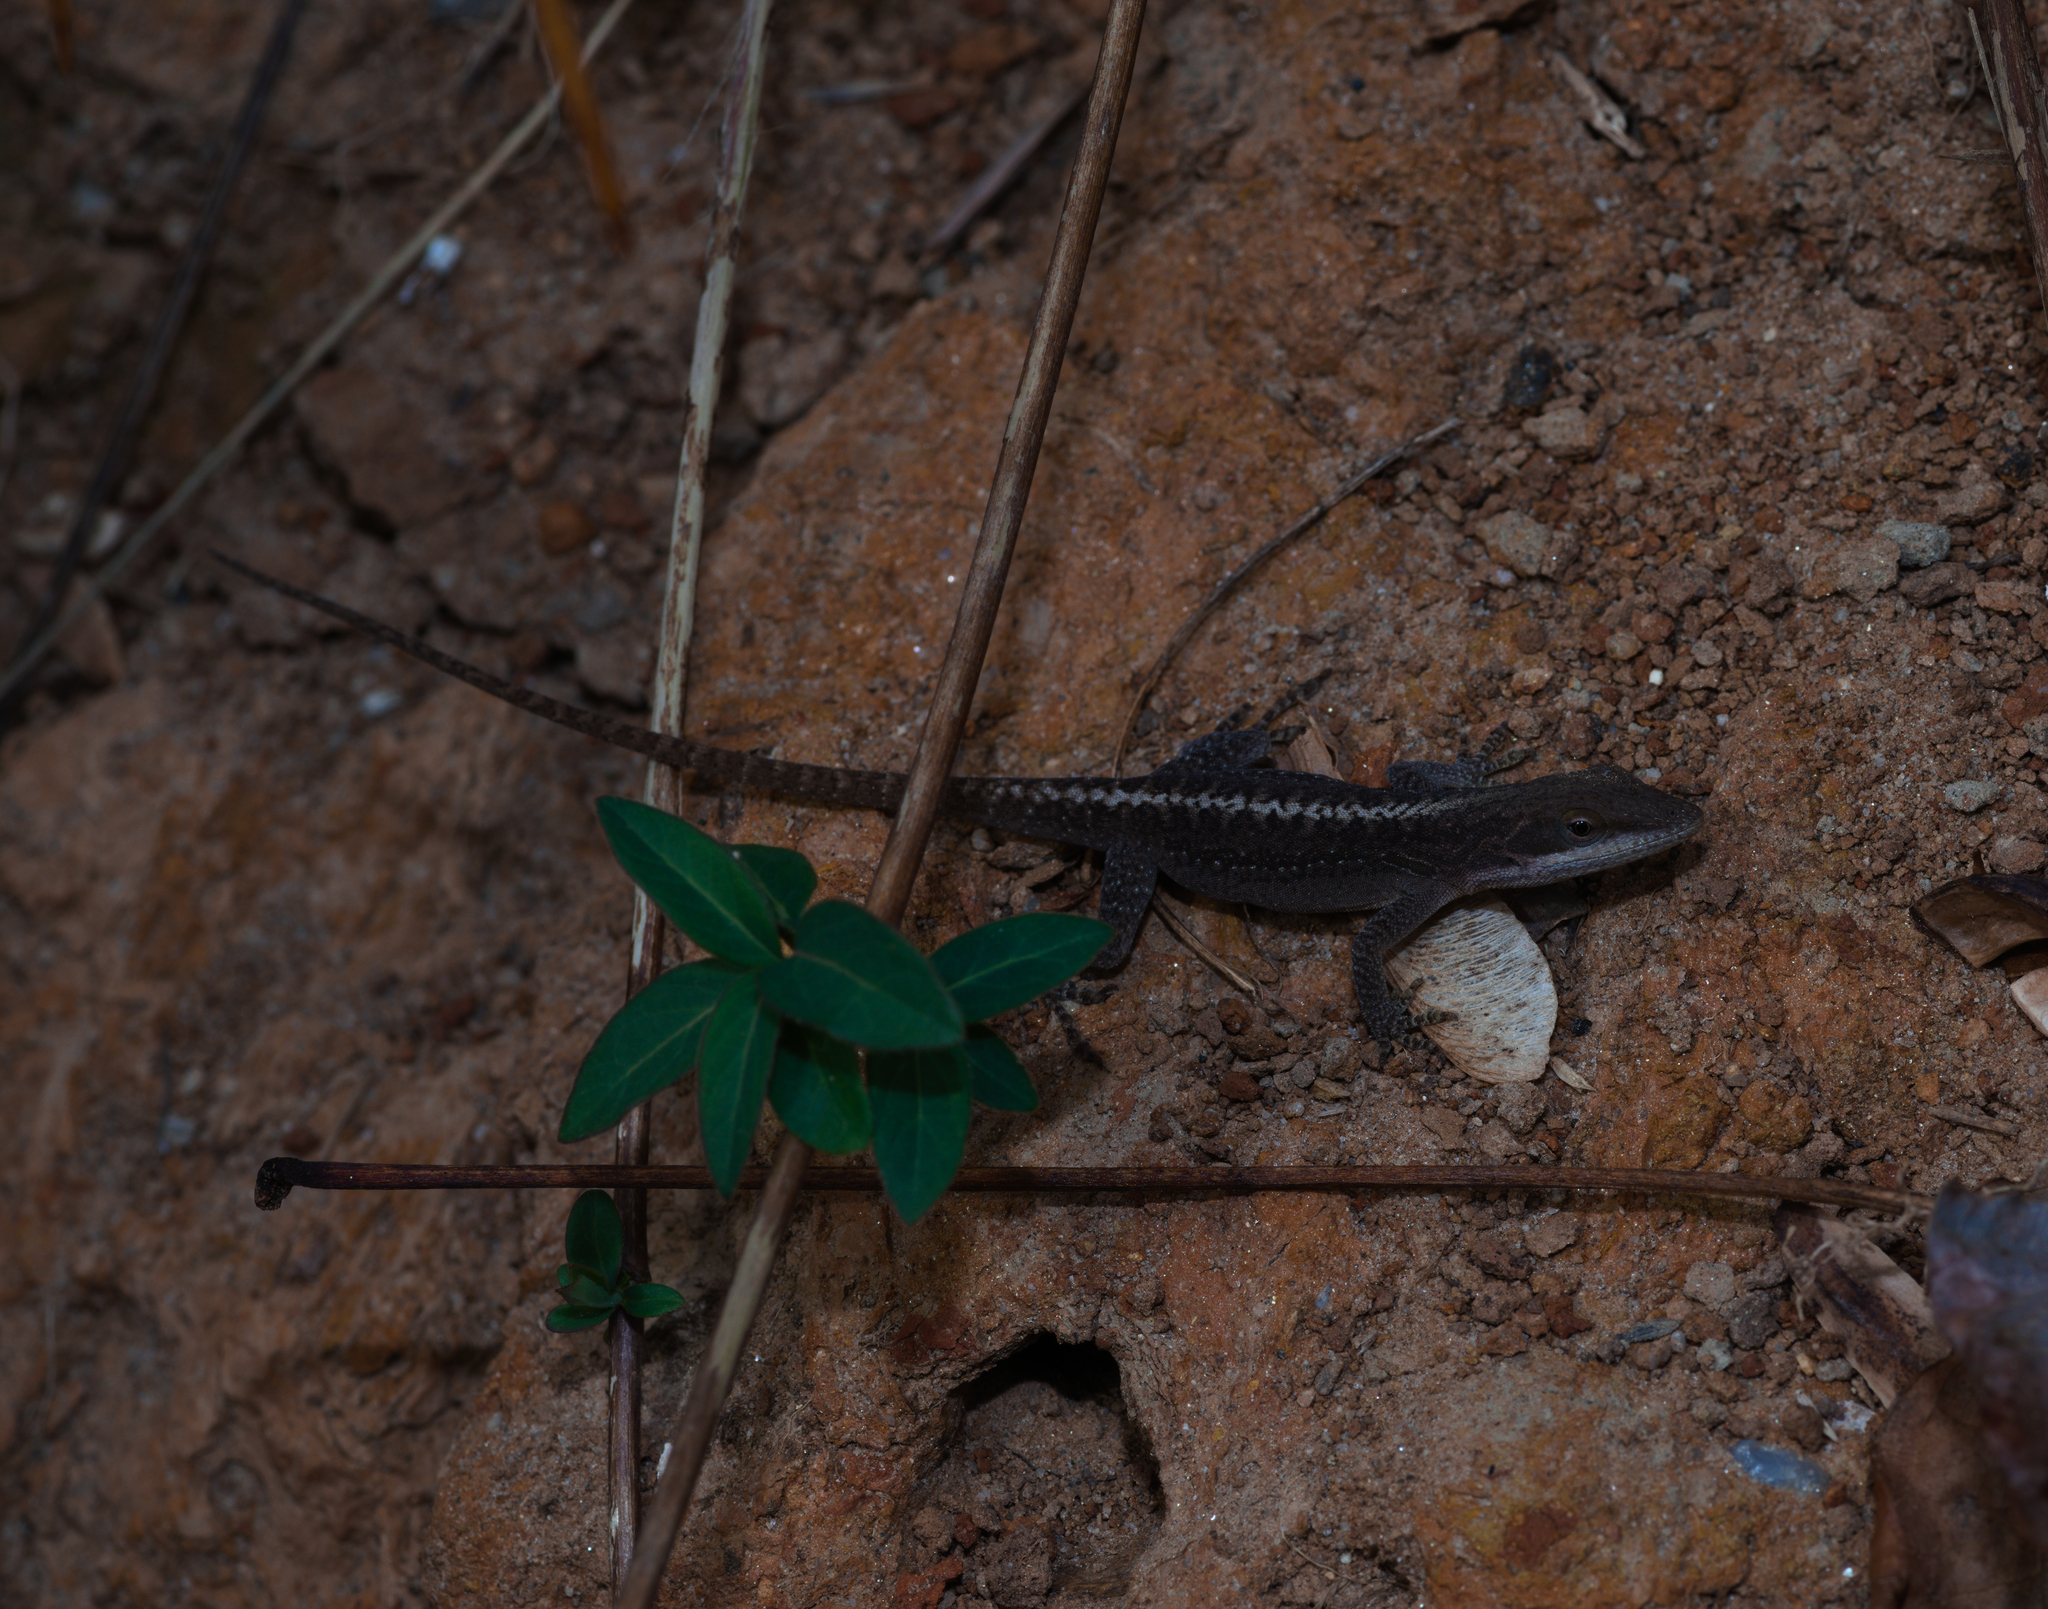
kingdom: Animalia
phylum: Chordata
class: Squamata
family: Dactyloidae
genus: Anolis
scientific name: Anolis carolinensis
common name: Green anole
